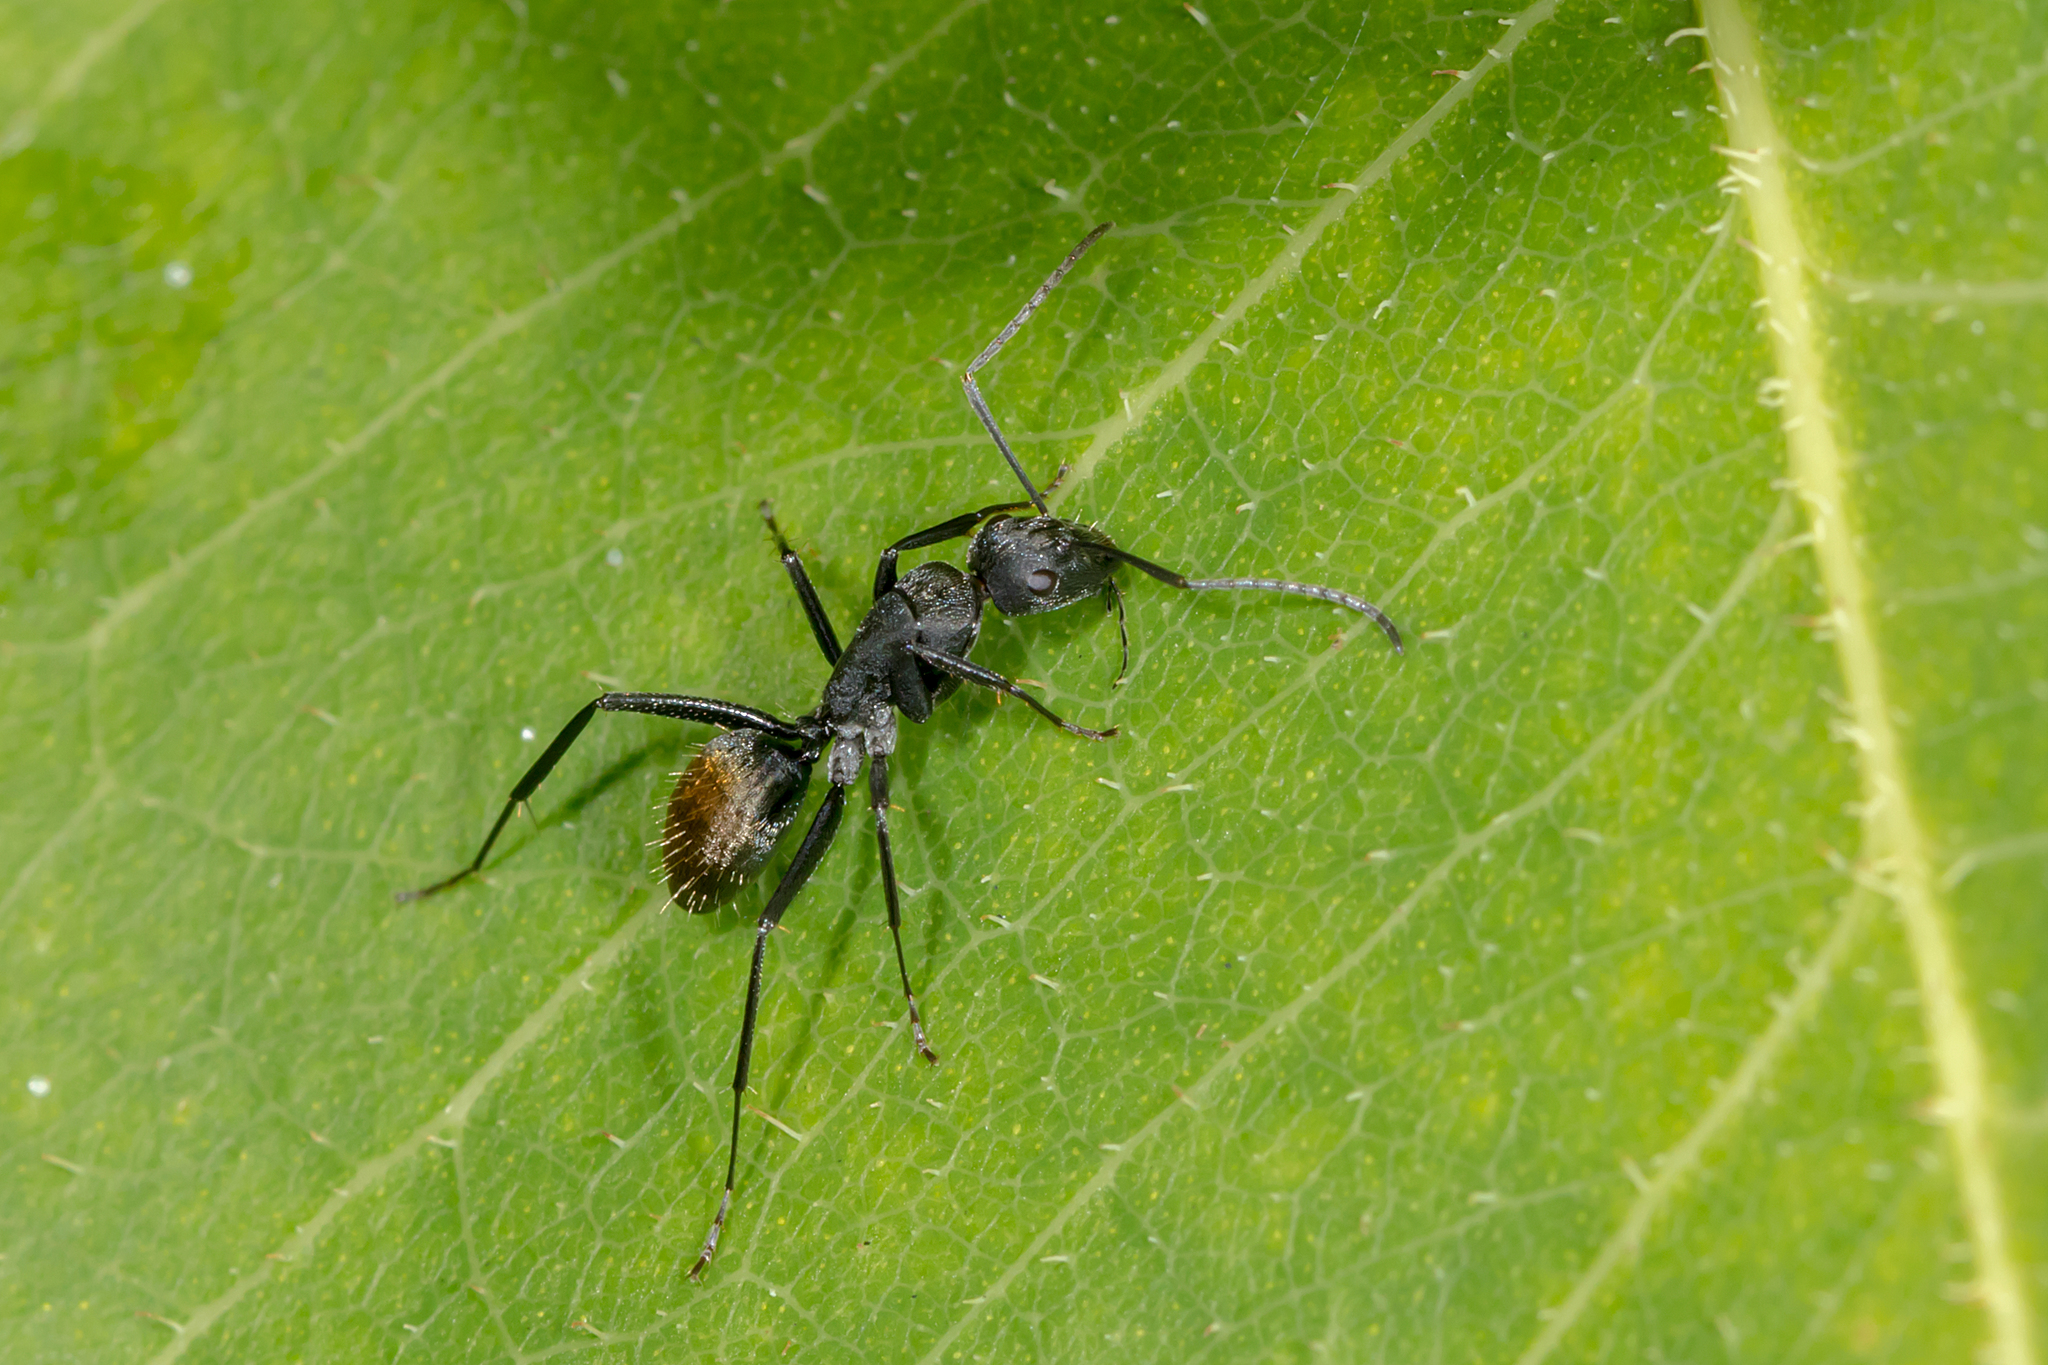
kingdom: Animalia
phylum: Arthropoda
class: Insecta
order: Hymenoptera
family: Formicidae
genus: Camponotus
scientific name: Camponotus aeneopilosus
